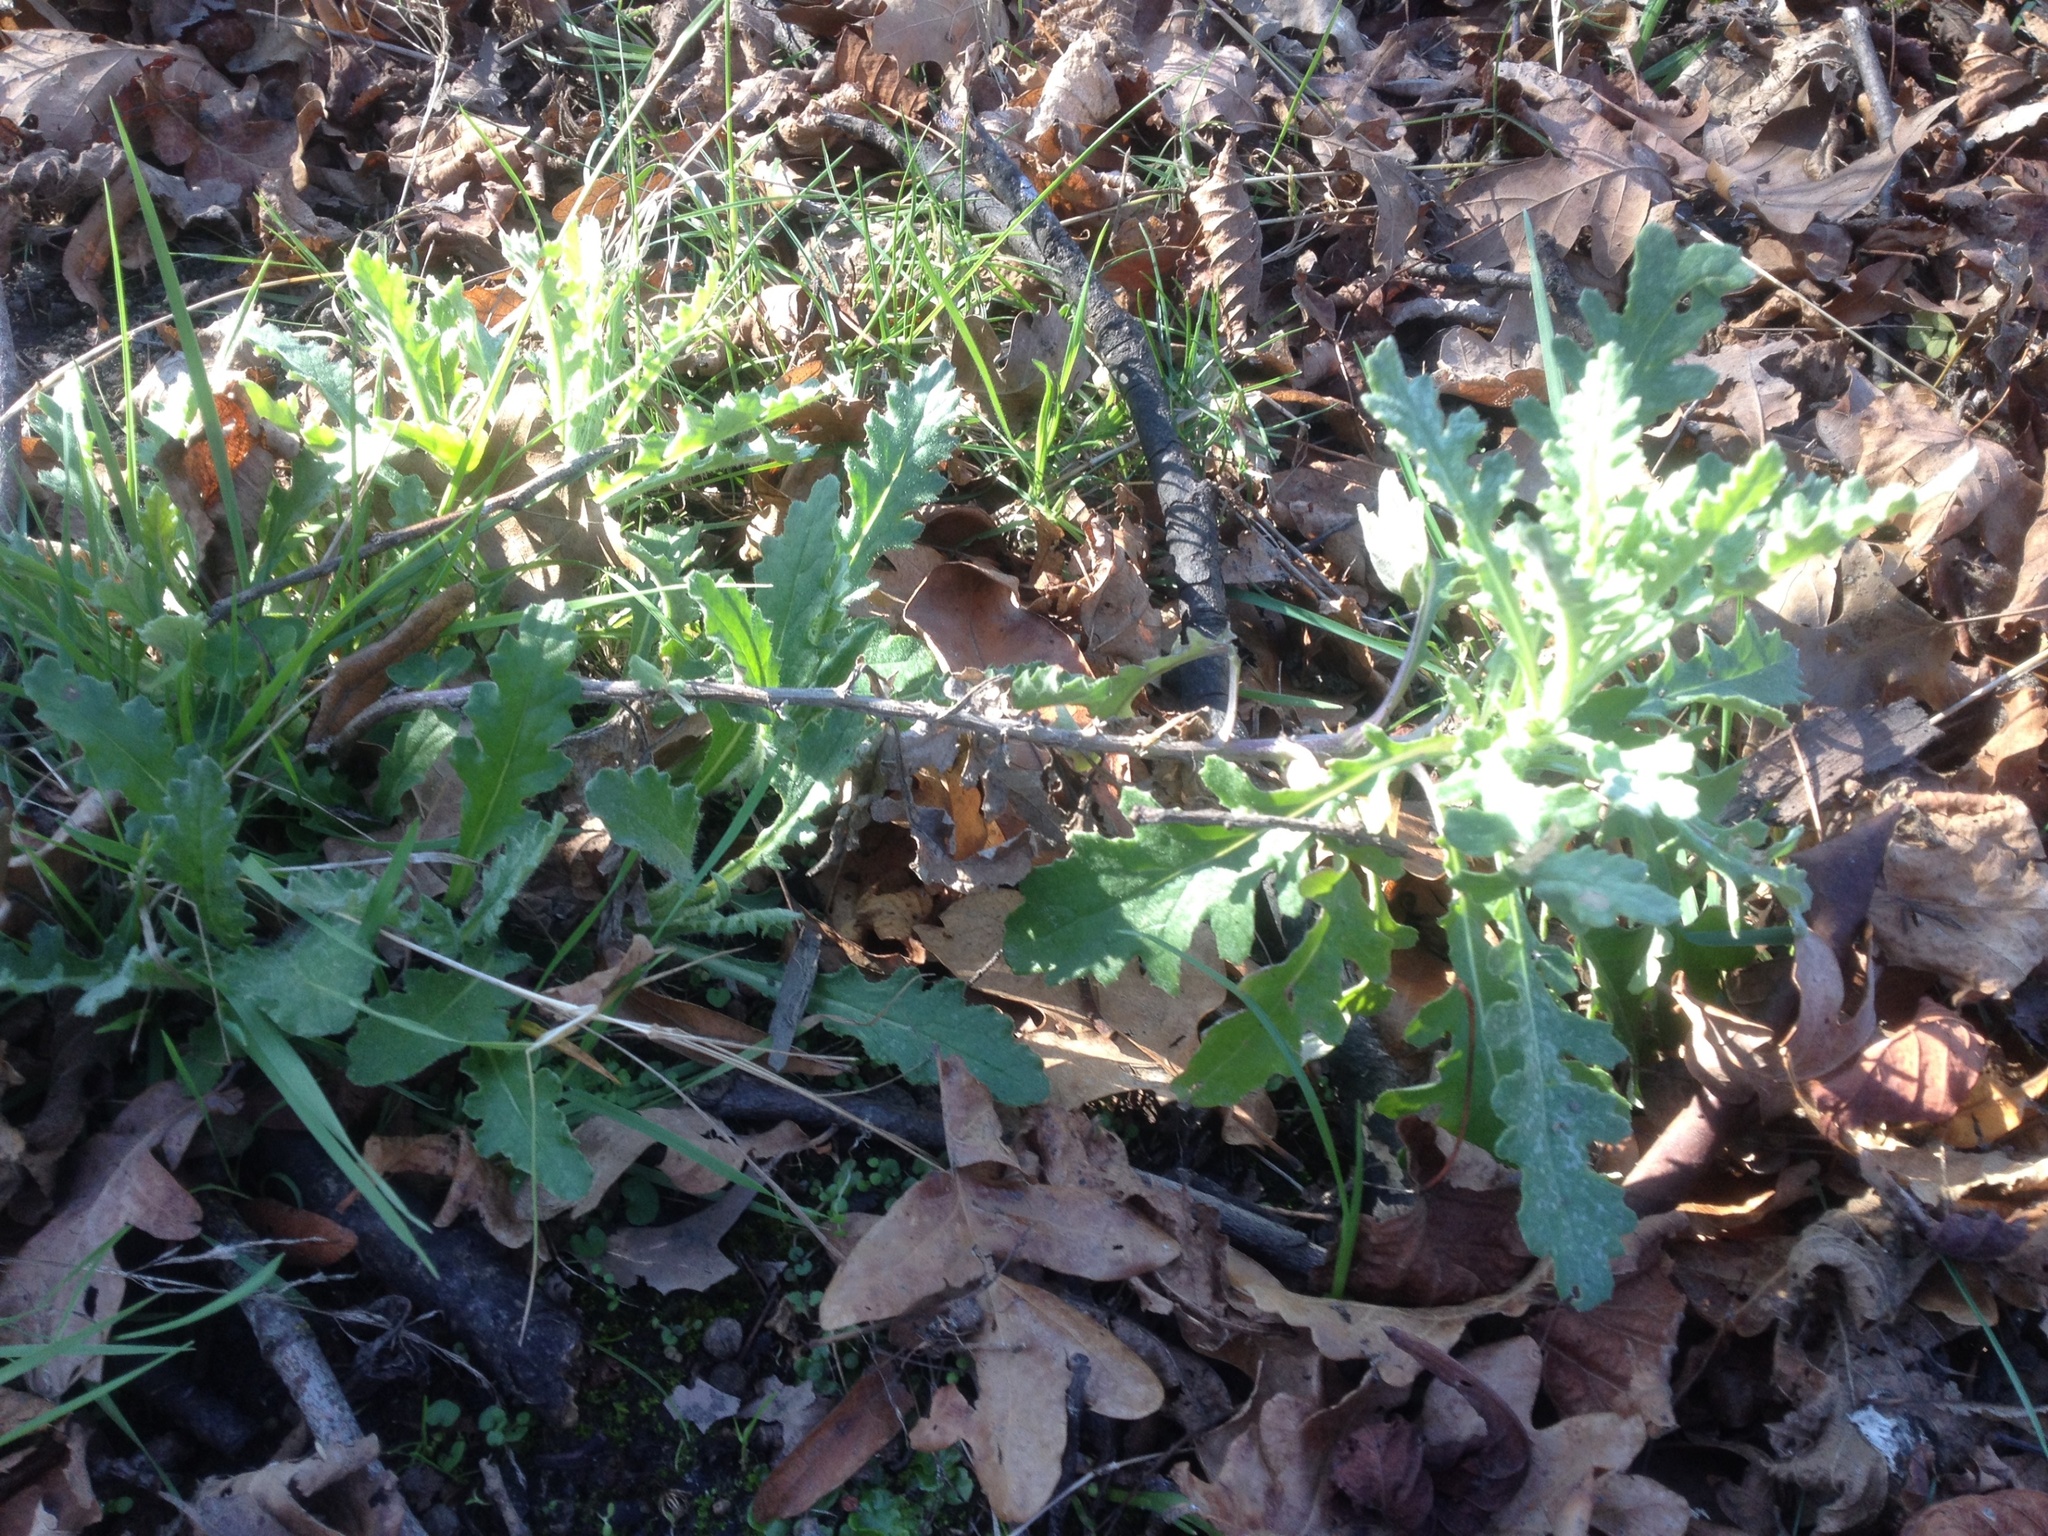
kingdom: Plantae
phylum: Tracheophyta
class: Magnoliopsida
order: Asterales
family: Asteraceae
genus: Senecio
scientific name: Senecio glomeratus
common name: Cutleaf burnweed
